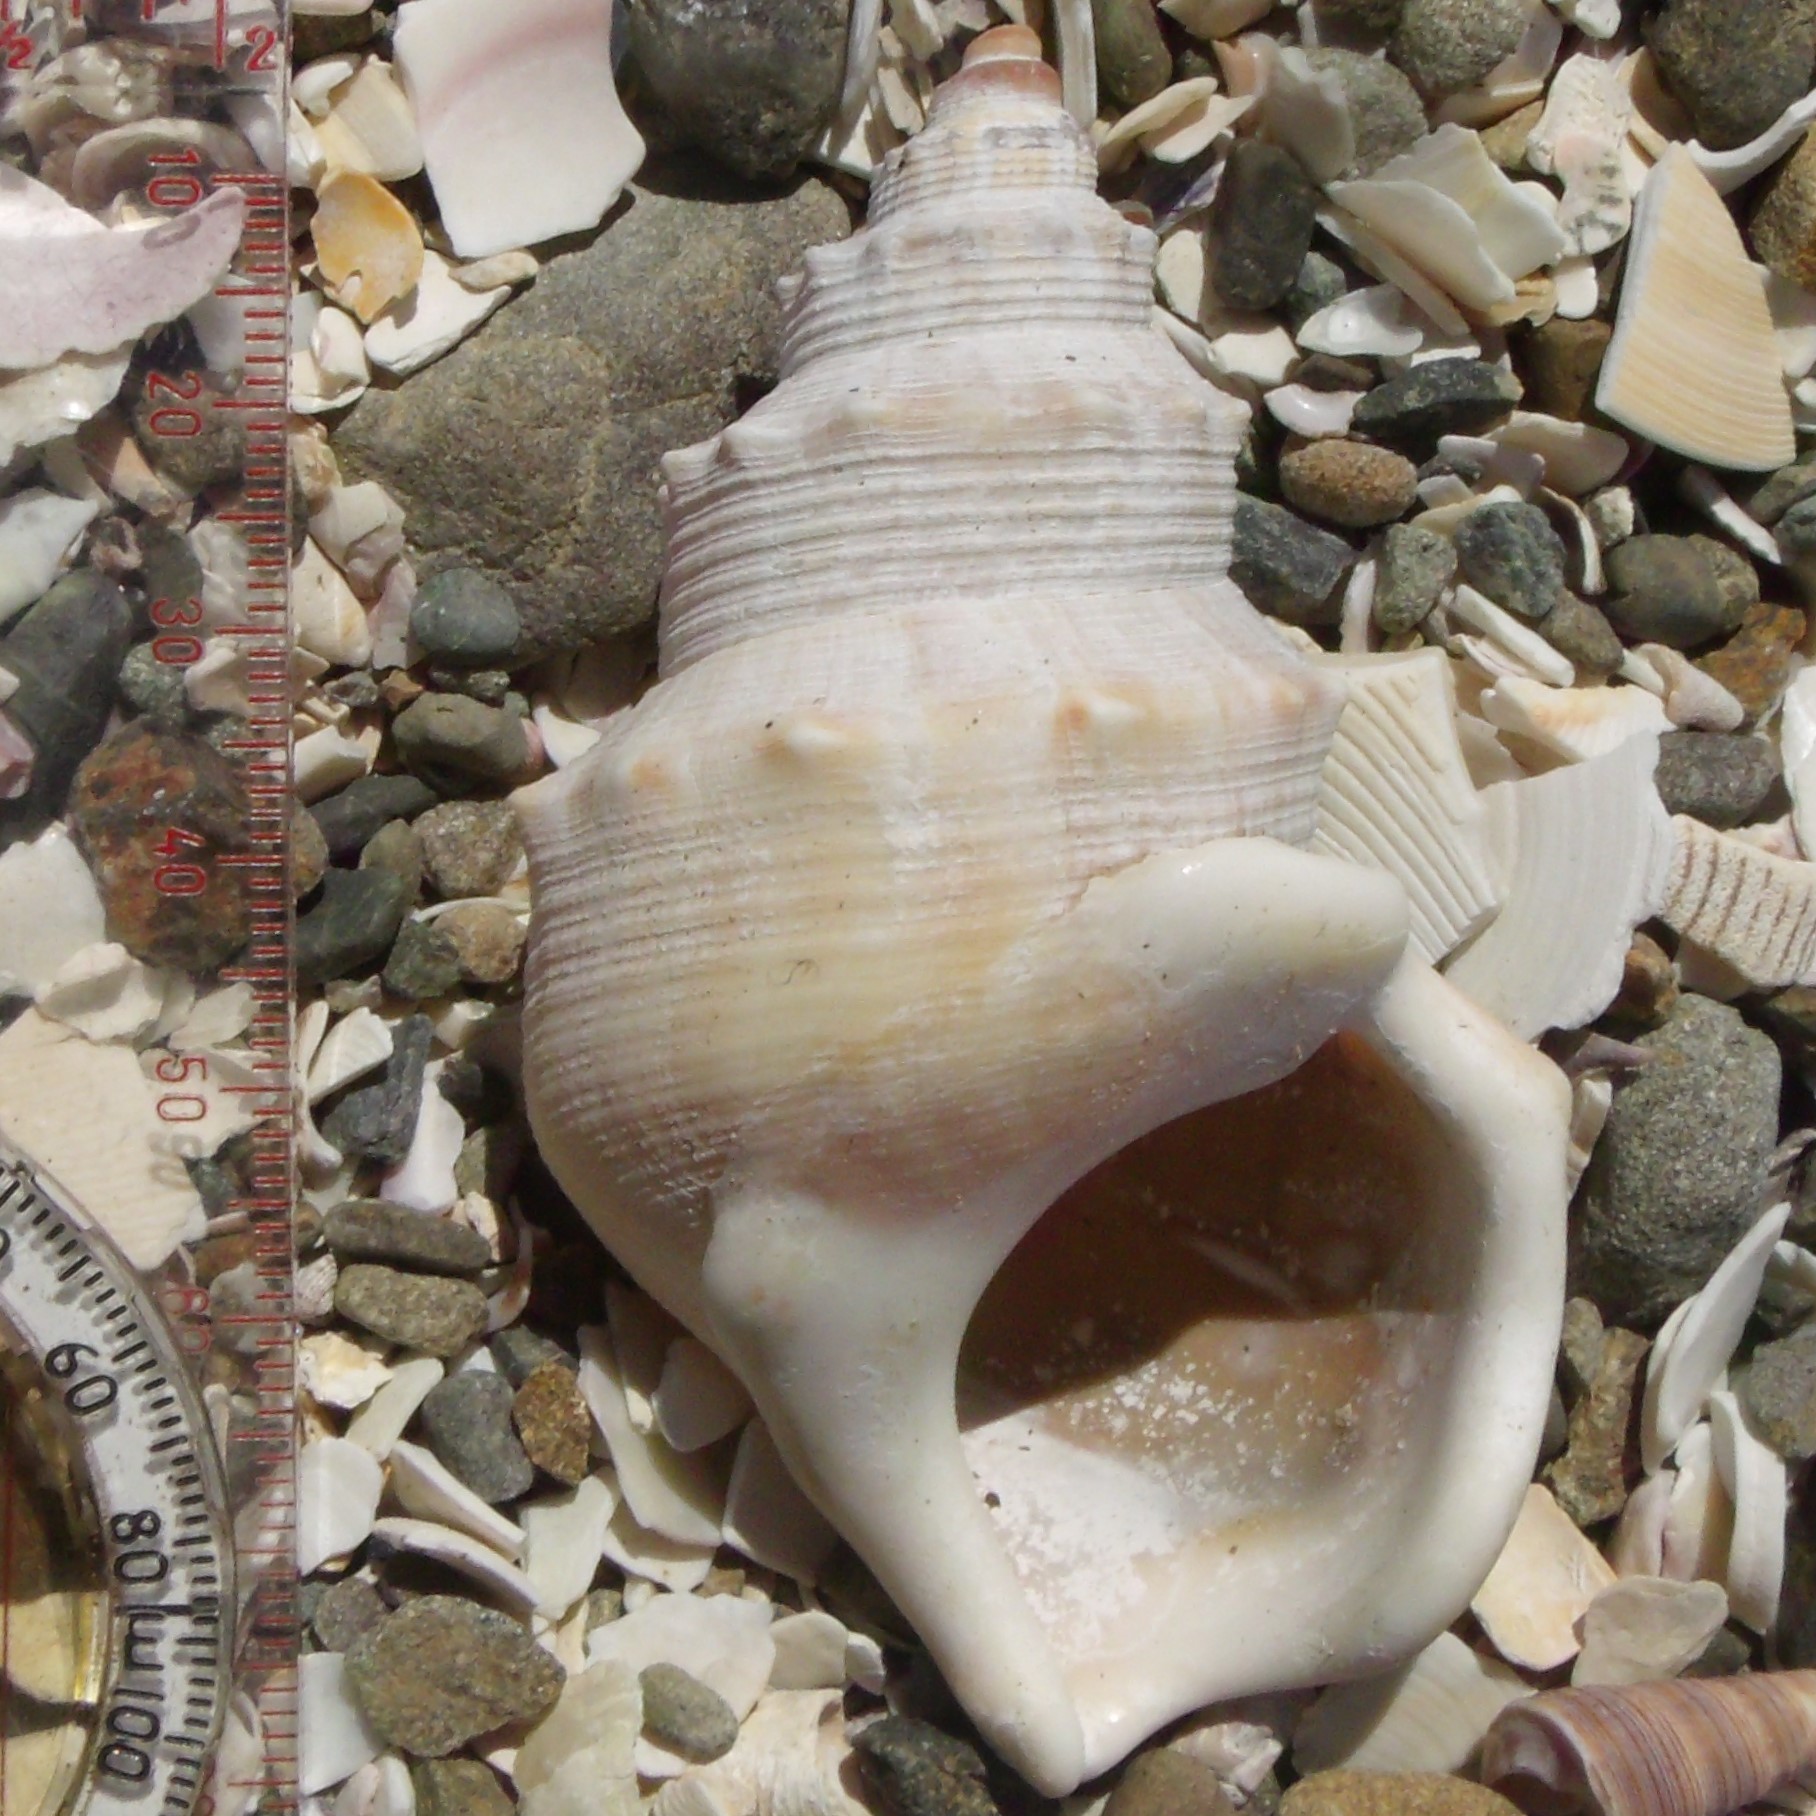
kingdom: Animalia
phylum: Mollusca
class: Gastropoda
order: Littorinimorpha
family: Struthiolariidae
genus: Struthiolaria
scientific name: Struthiolaria papulosa
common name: Large ostrich foot
